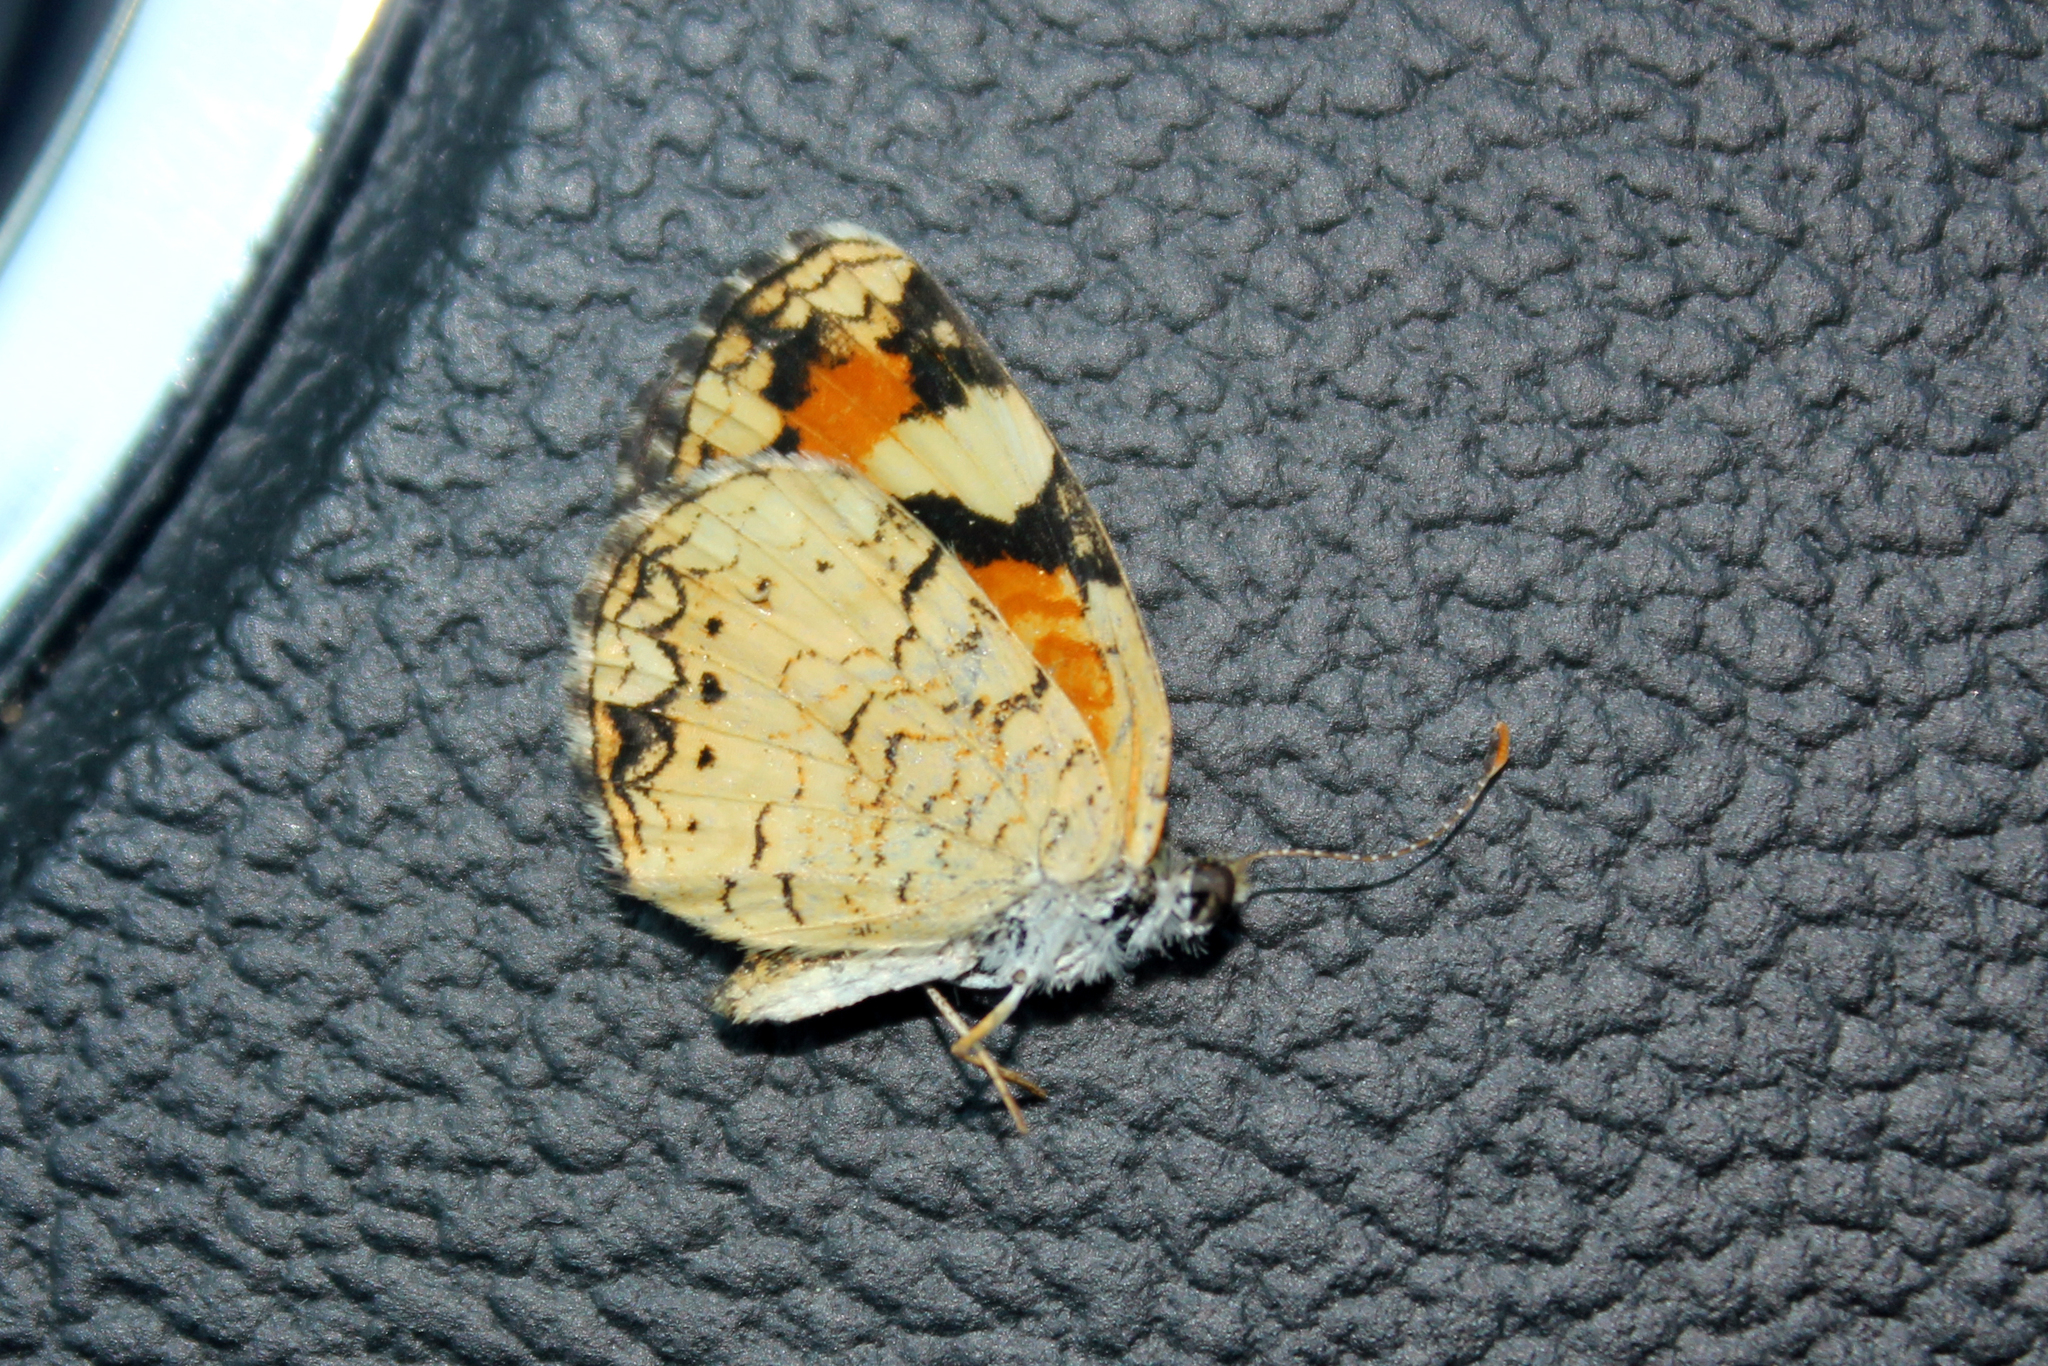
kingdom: Animalia
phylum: Arthropoda
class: Insecta
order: Lepidoptera
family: Nymphalidae
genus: Phyciodes
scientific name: Phyciodes phaon
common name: Phaon crescent
